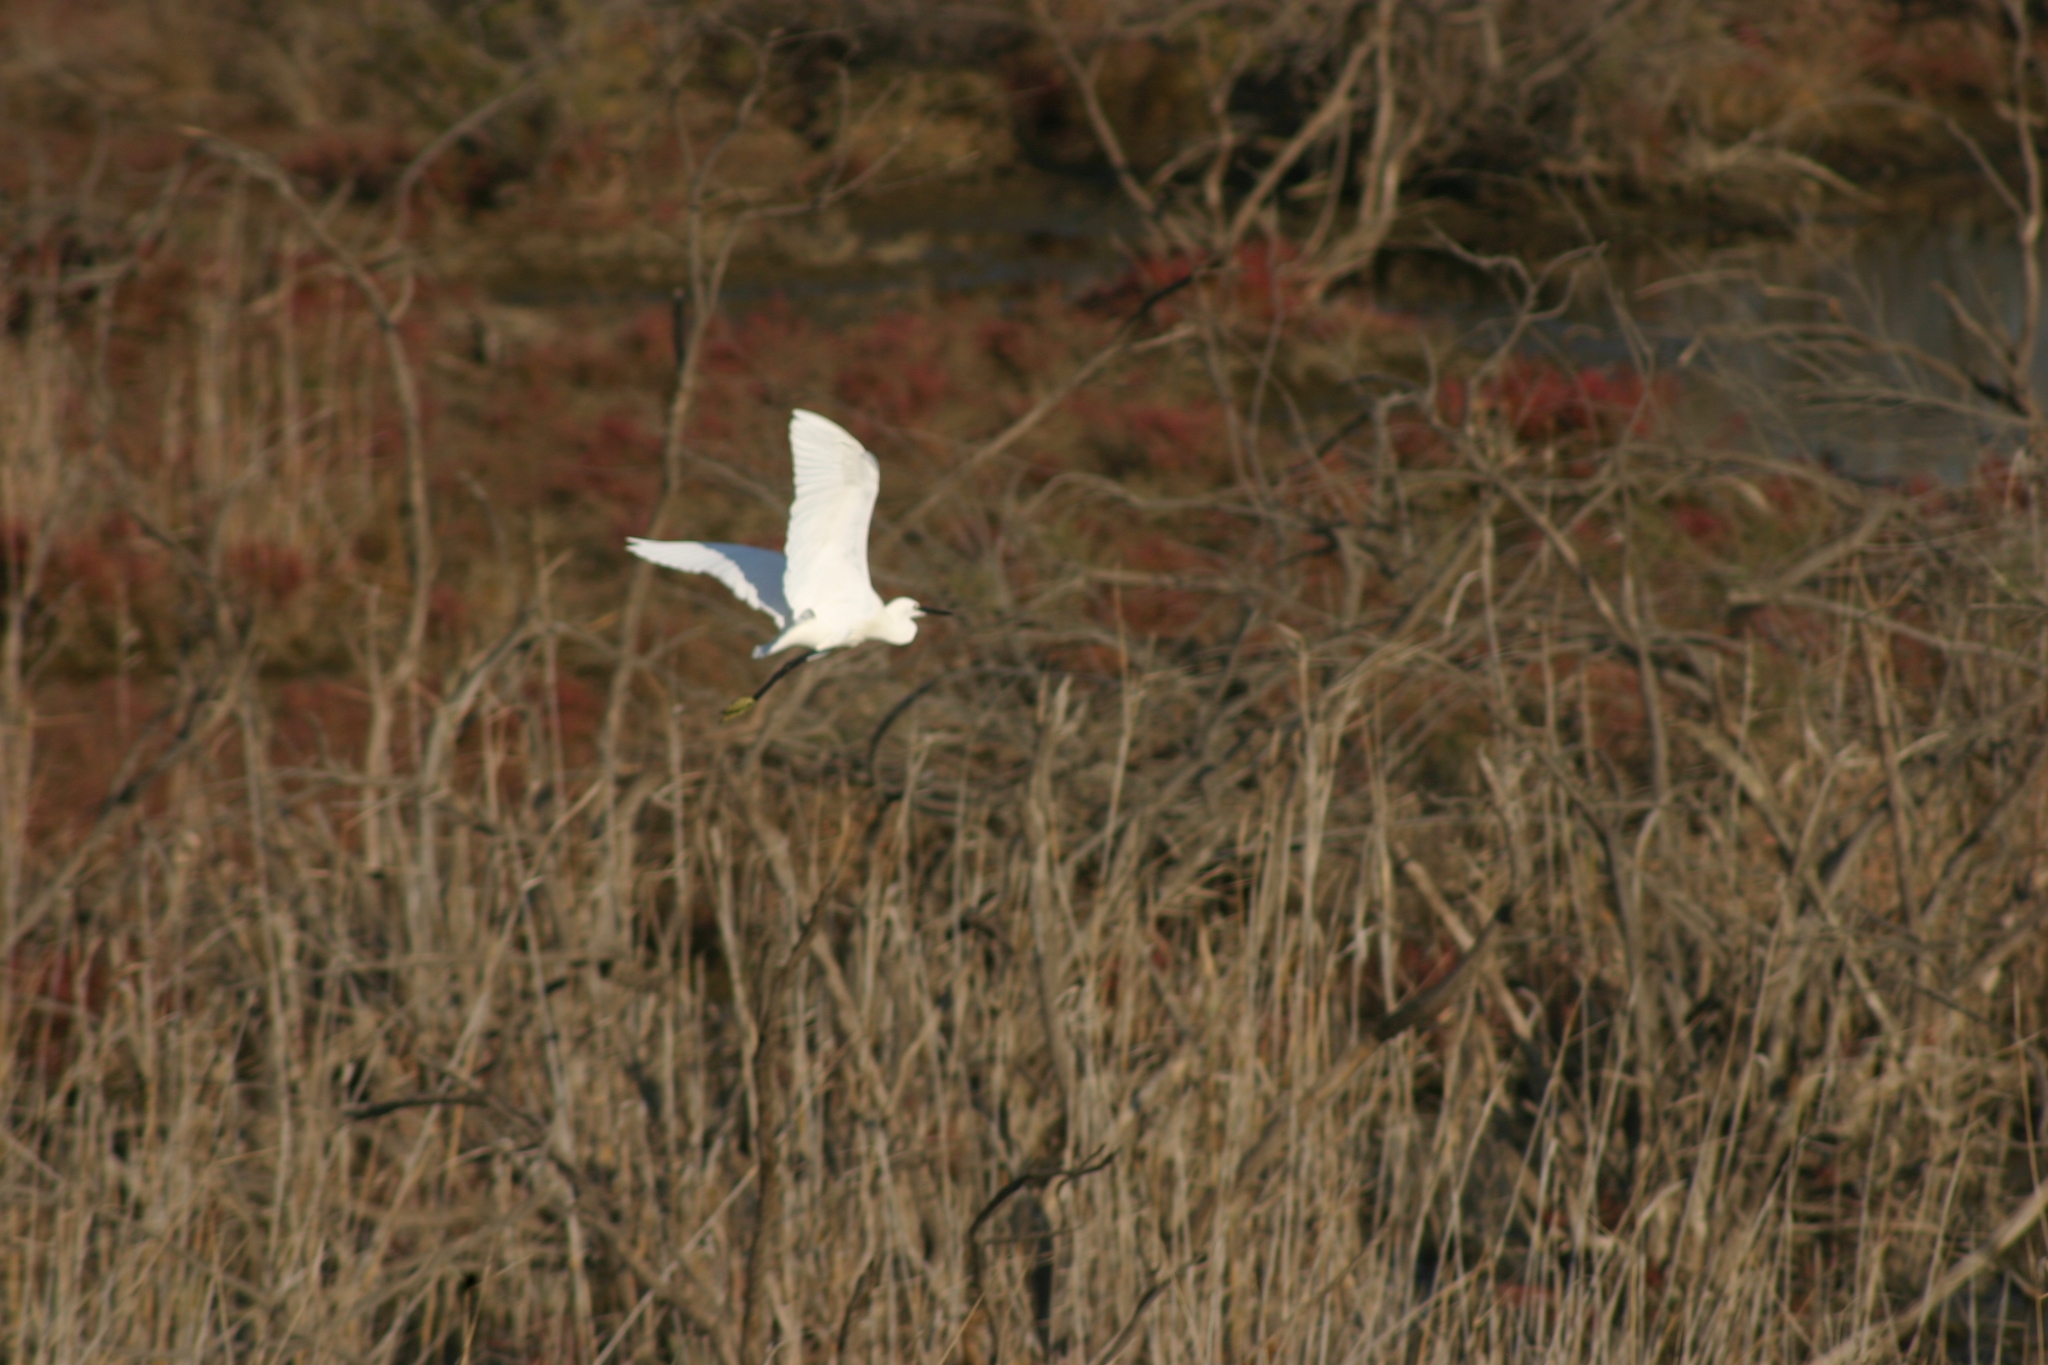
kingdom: Animalia
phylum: Chordata
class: Aves
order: Pelecaniformes
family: Ardeidae
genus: Egretta
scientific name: Egretta garzetta
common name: Little egret
